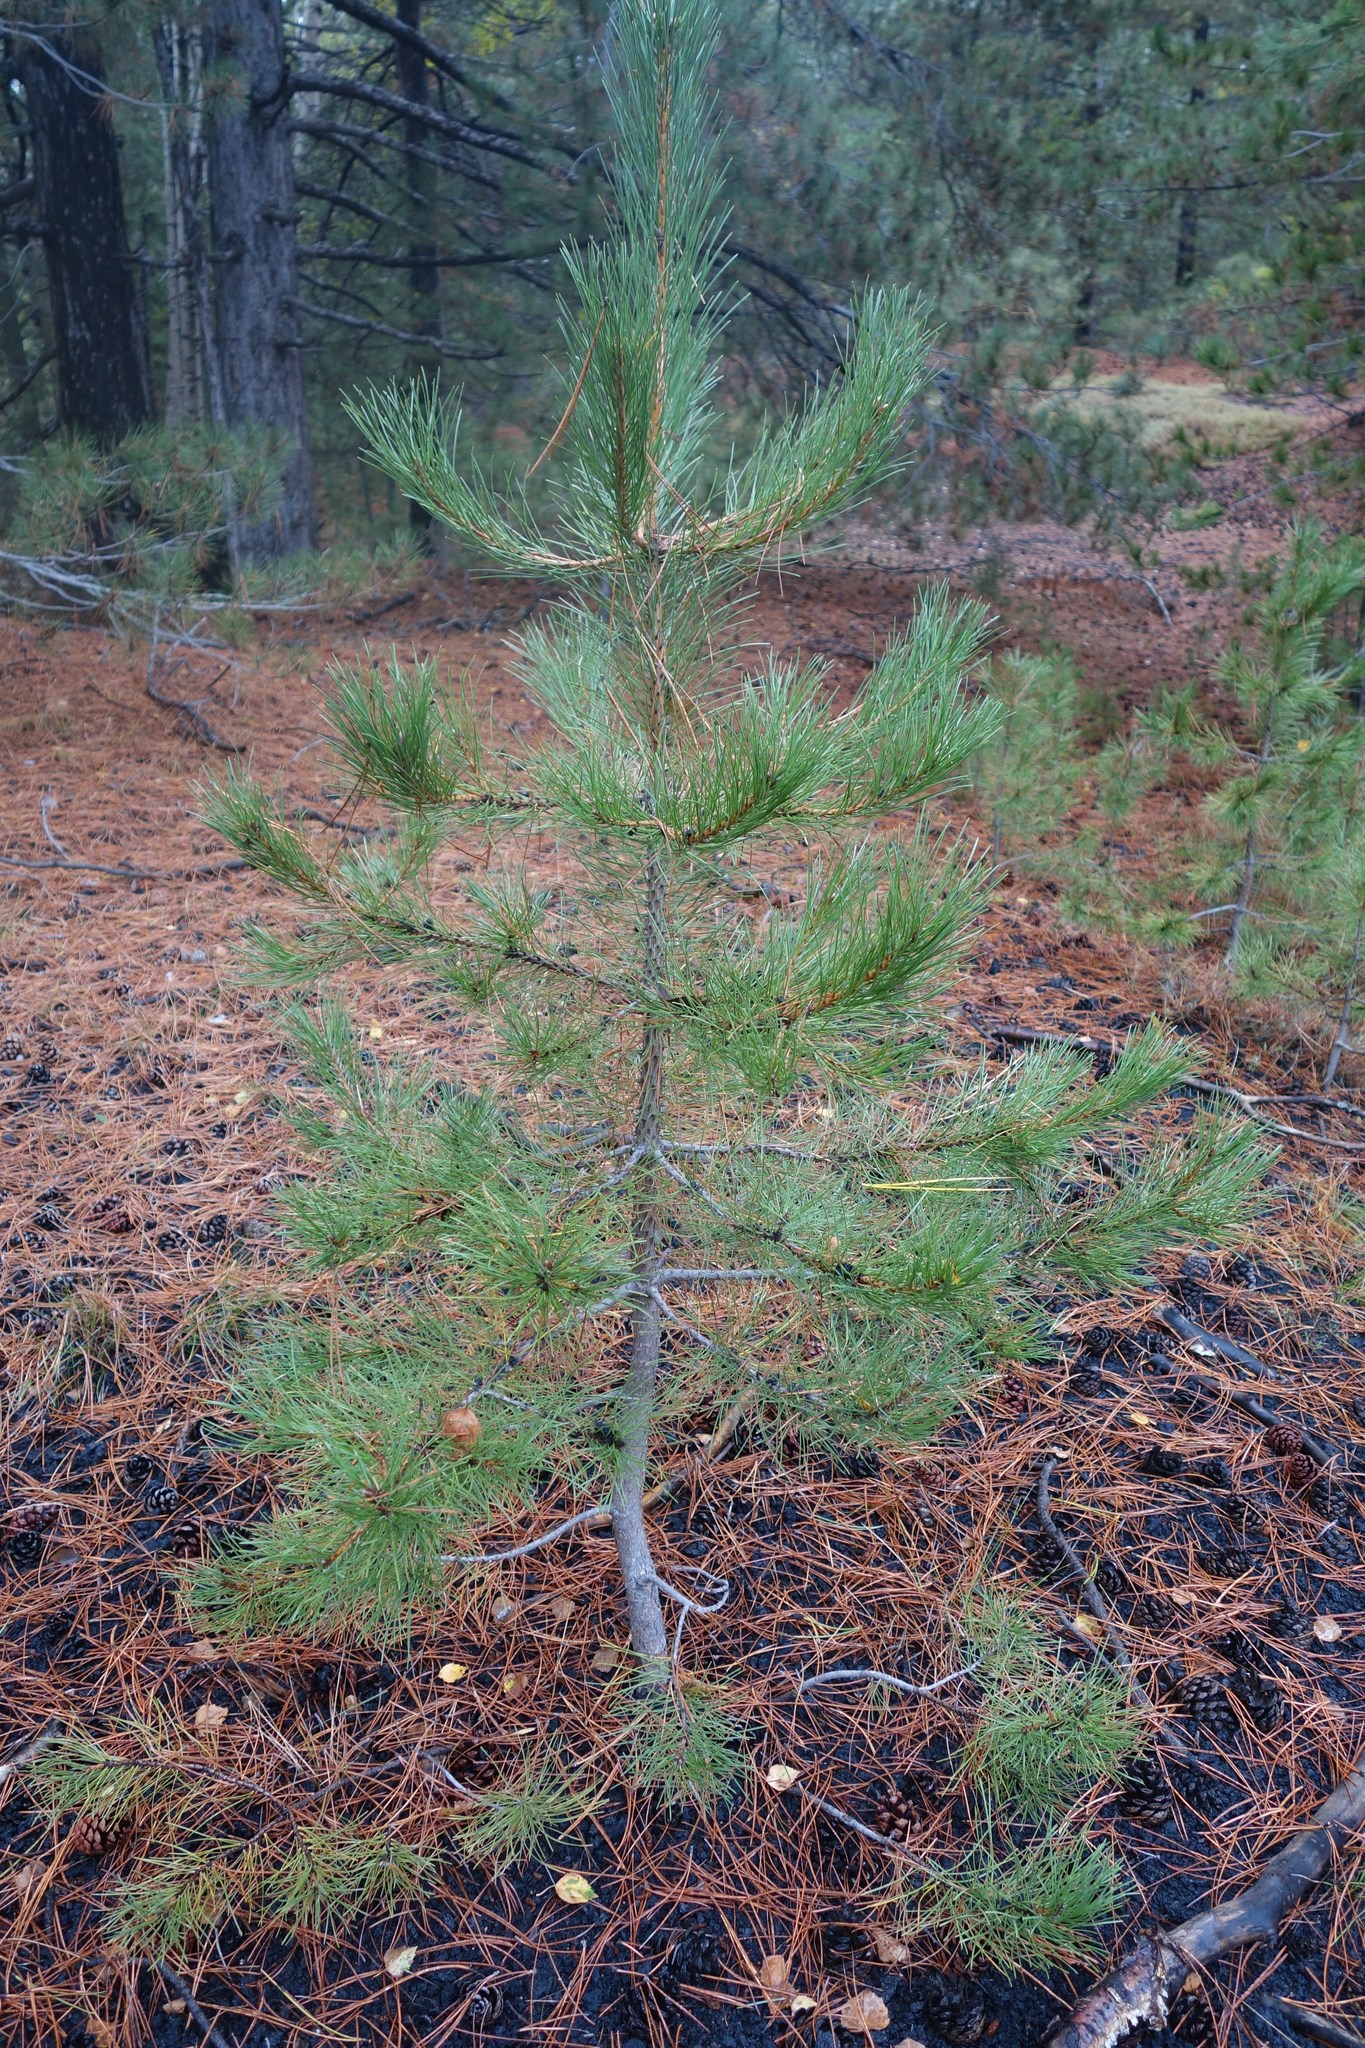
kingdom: Plantae
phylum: Tracheophyta
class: Pinopsida
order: Pinales
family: Pinaceae
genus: Pinus
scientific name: Pinus nigra
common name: Austrian pine
